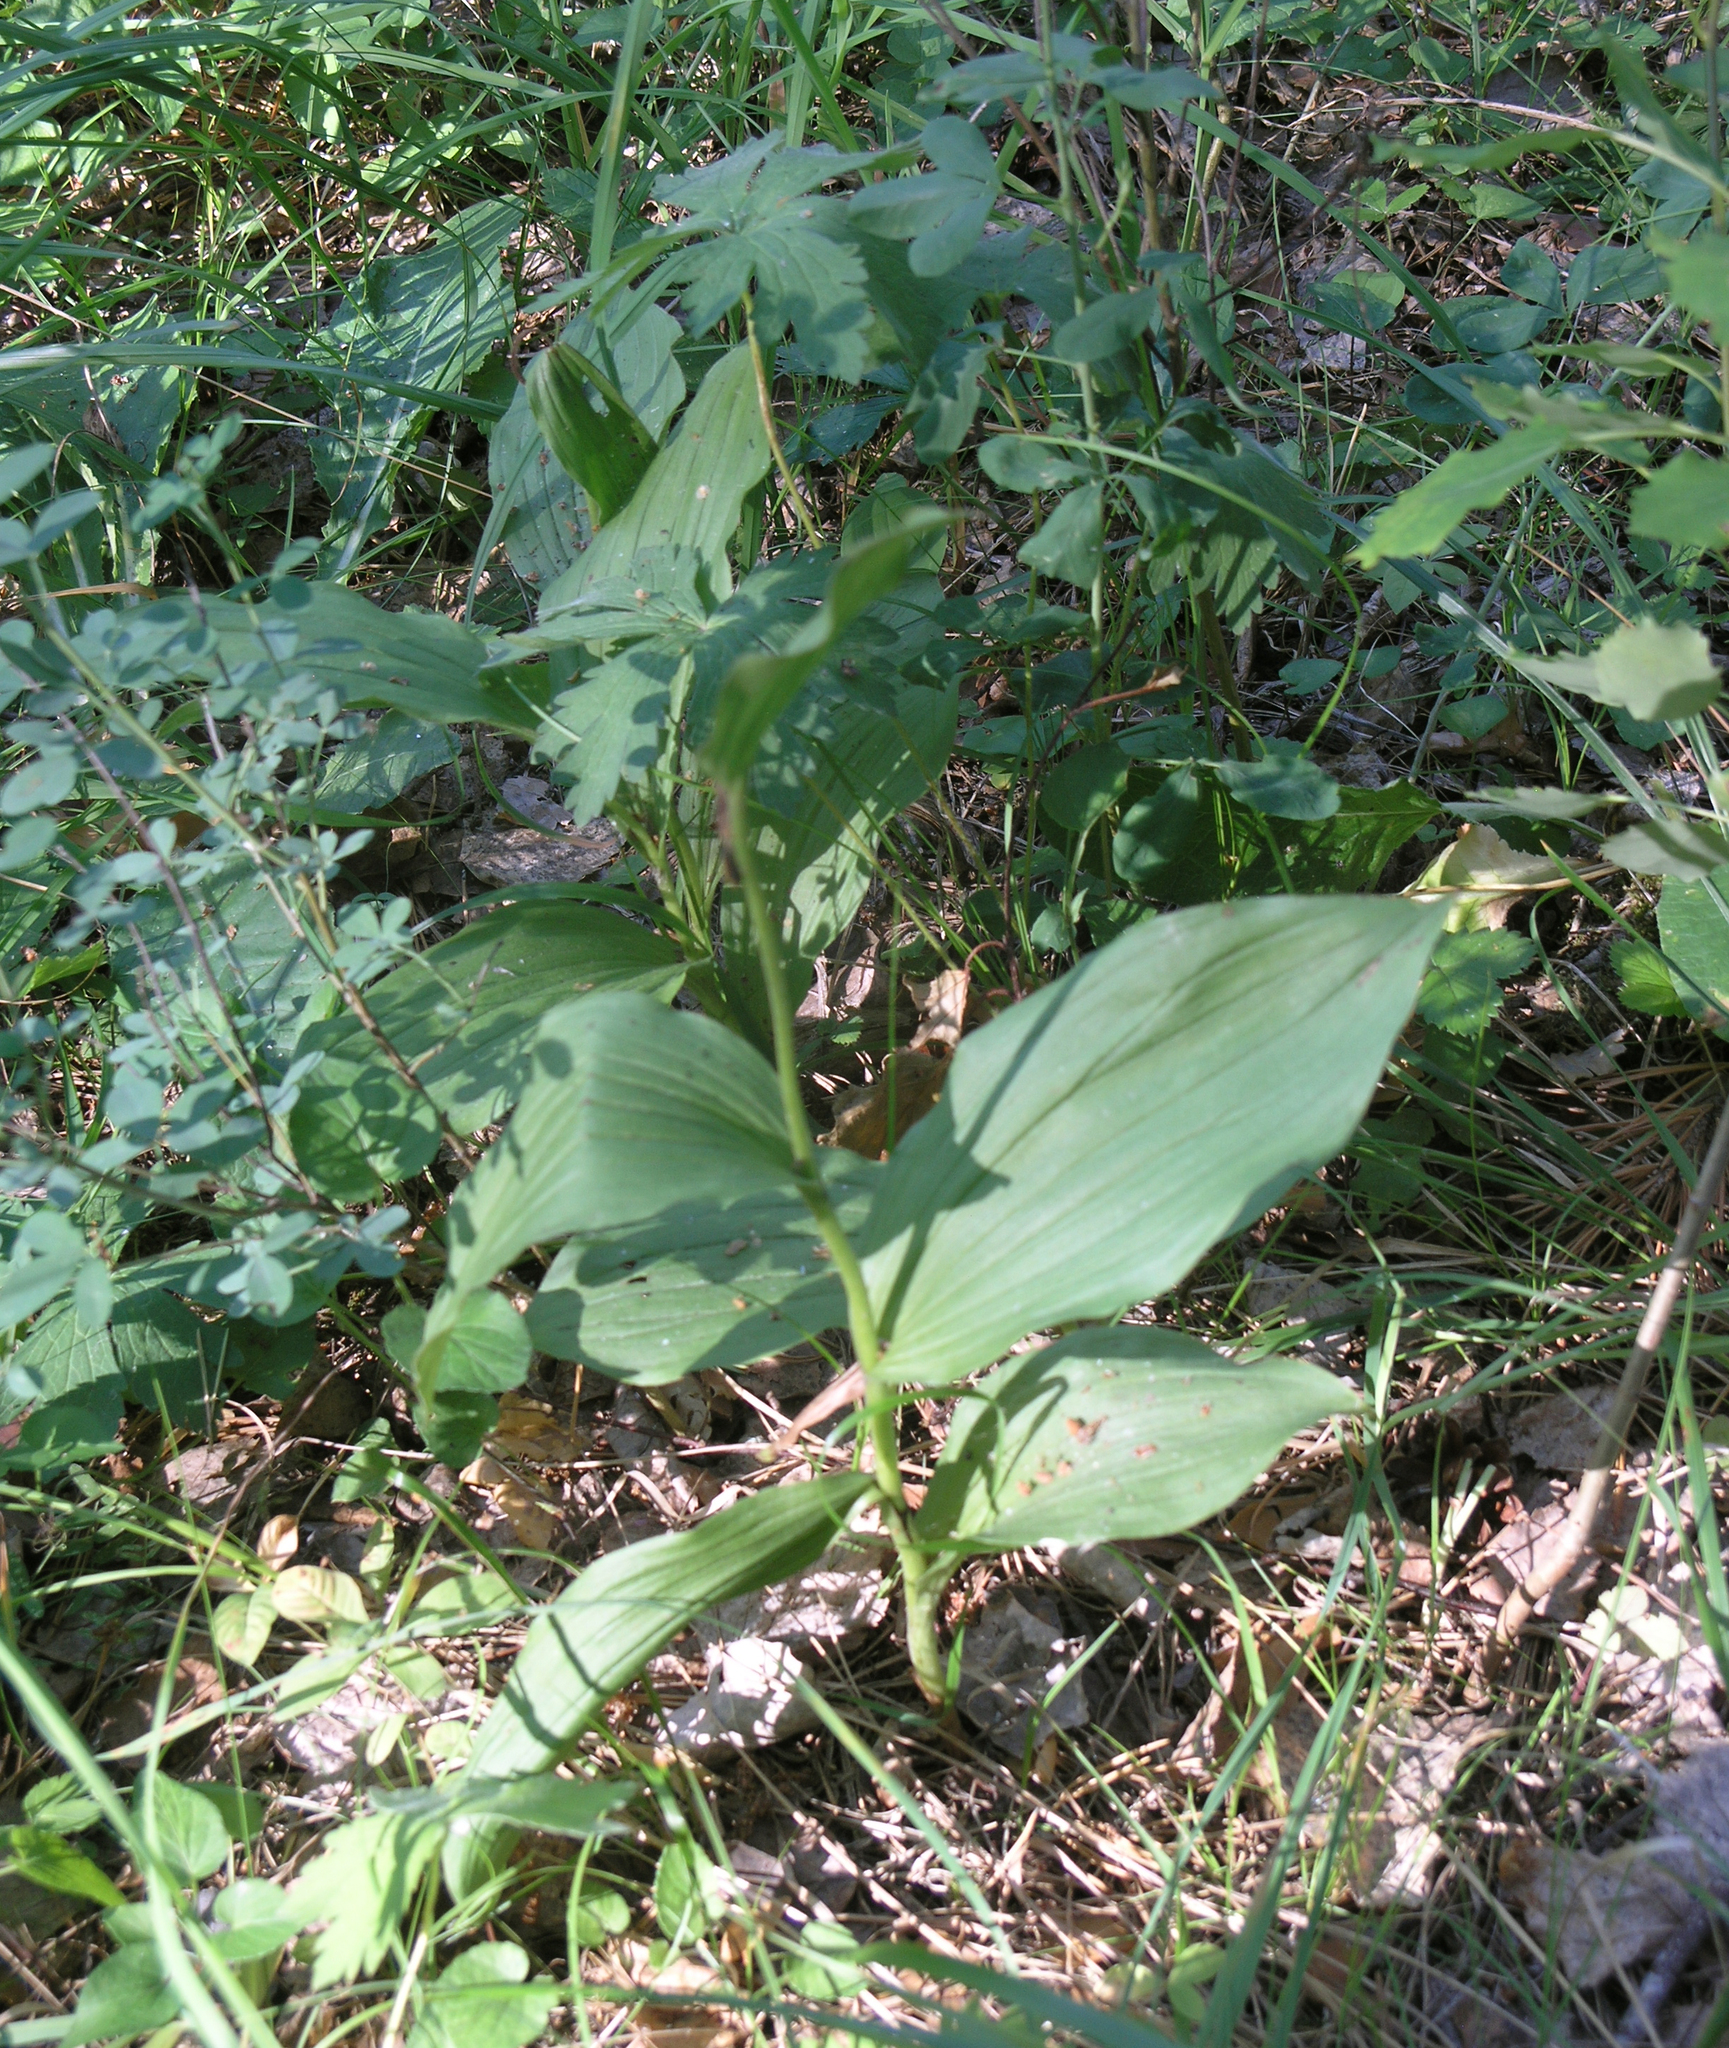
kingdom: Plantae
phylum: Tracheophyta
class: Liliopsida
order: Asparagales
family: Orchidaceae
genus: Cypripedium
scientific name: Cypripedium calceolus
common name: Lady's-slipper
